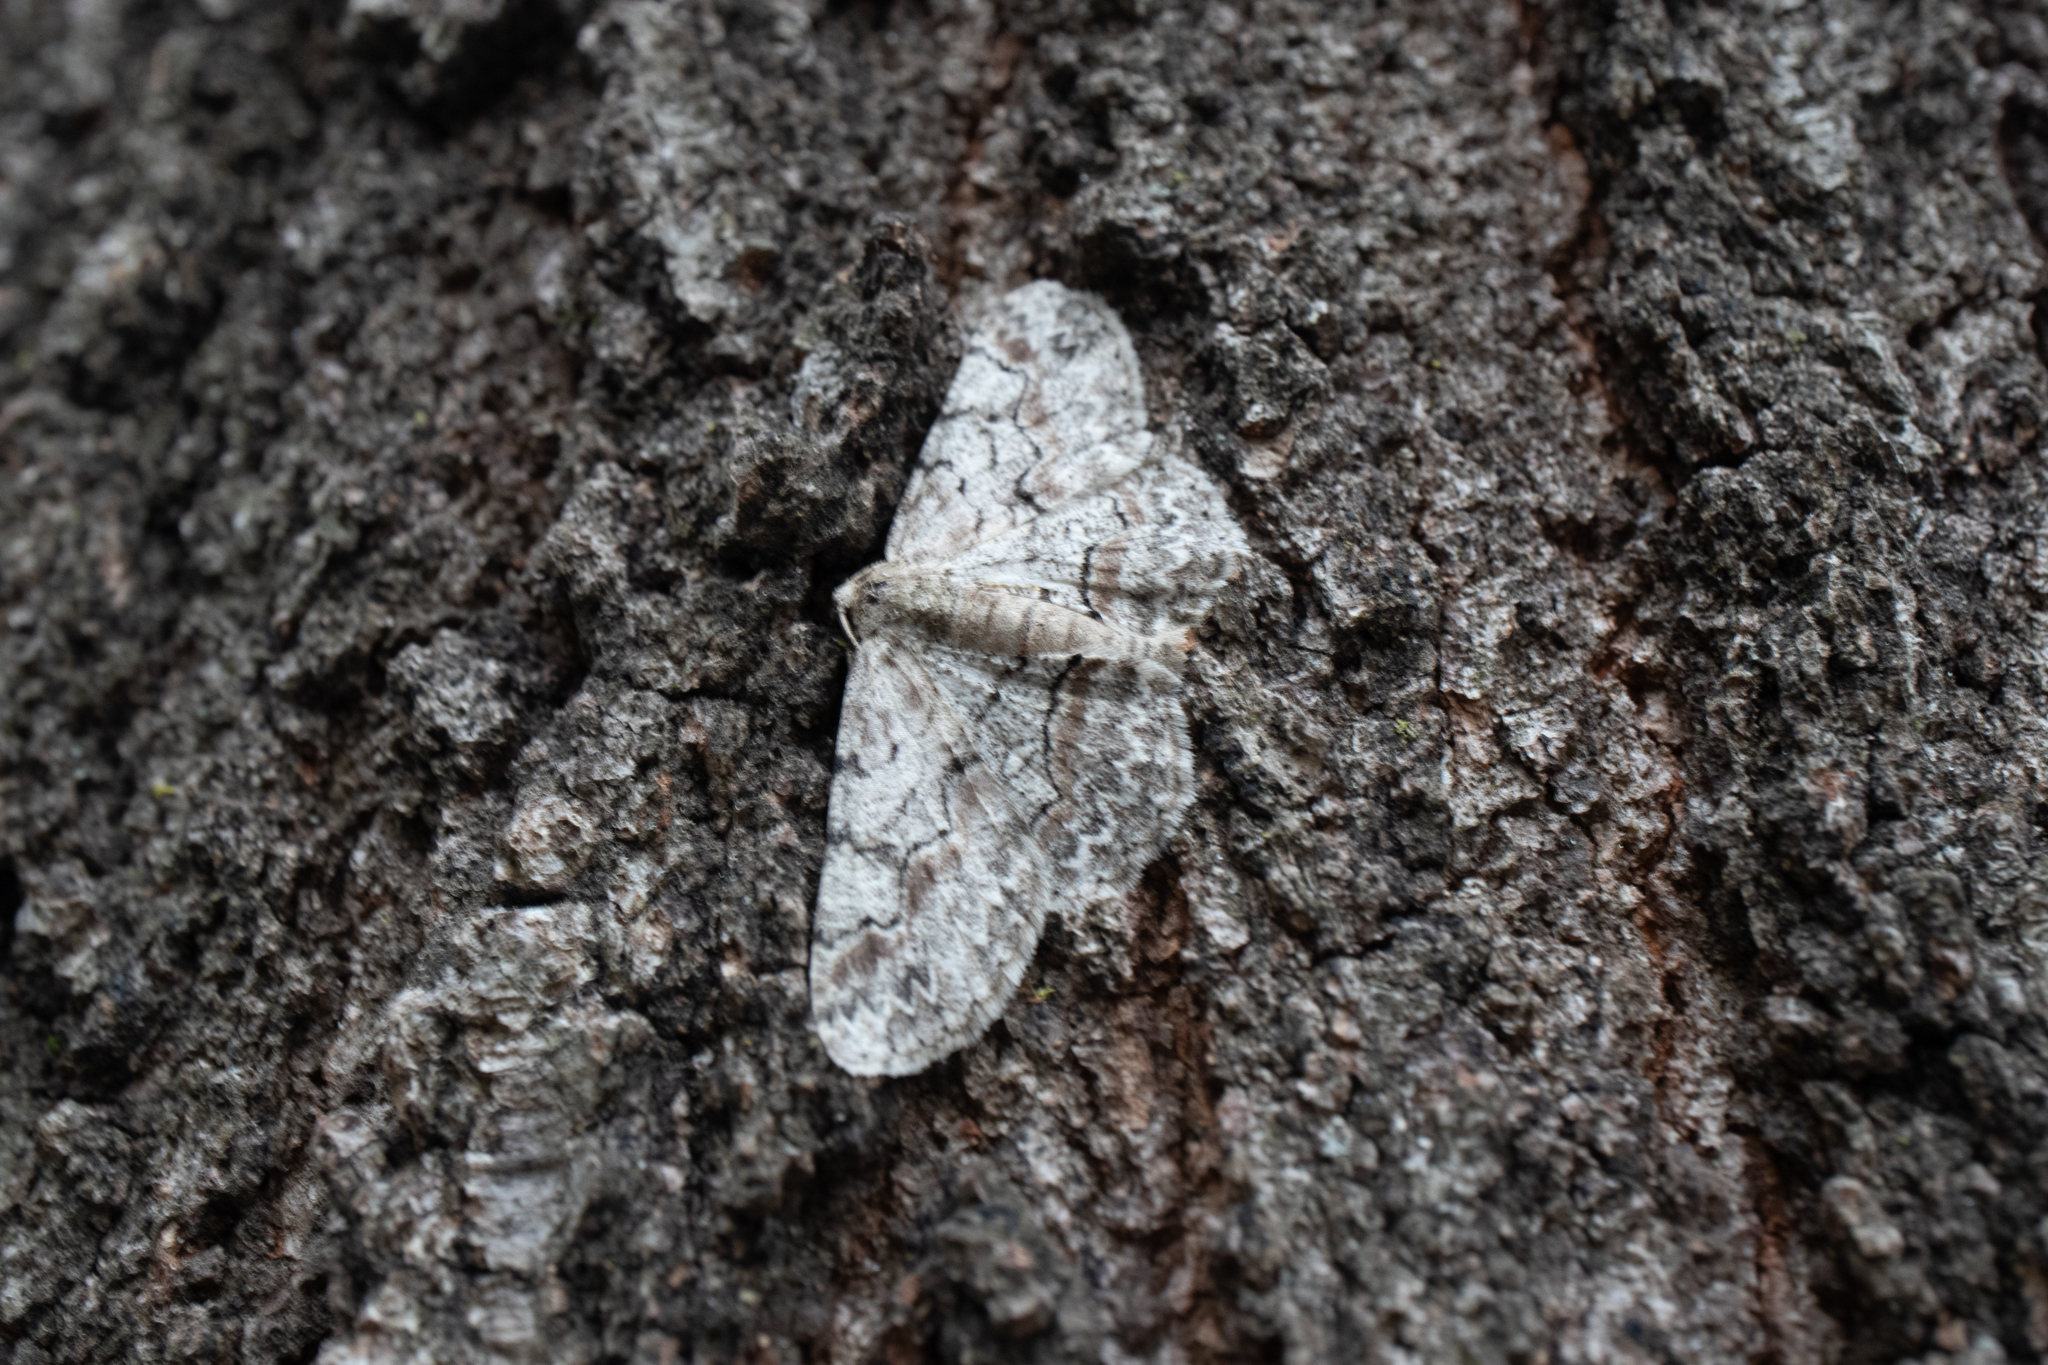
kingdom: Animalia
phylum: Arthropoda
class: Insecta
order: Lepidoptera
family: Geometridae
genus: Iridopsis
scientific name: Iridopsis defectaria
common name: Brown-shaded gray
